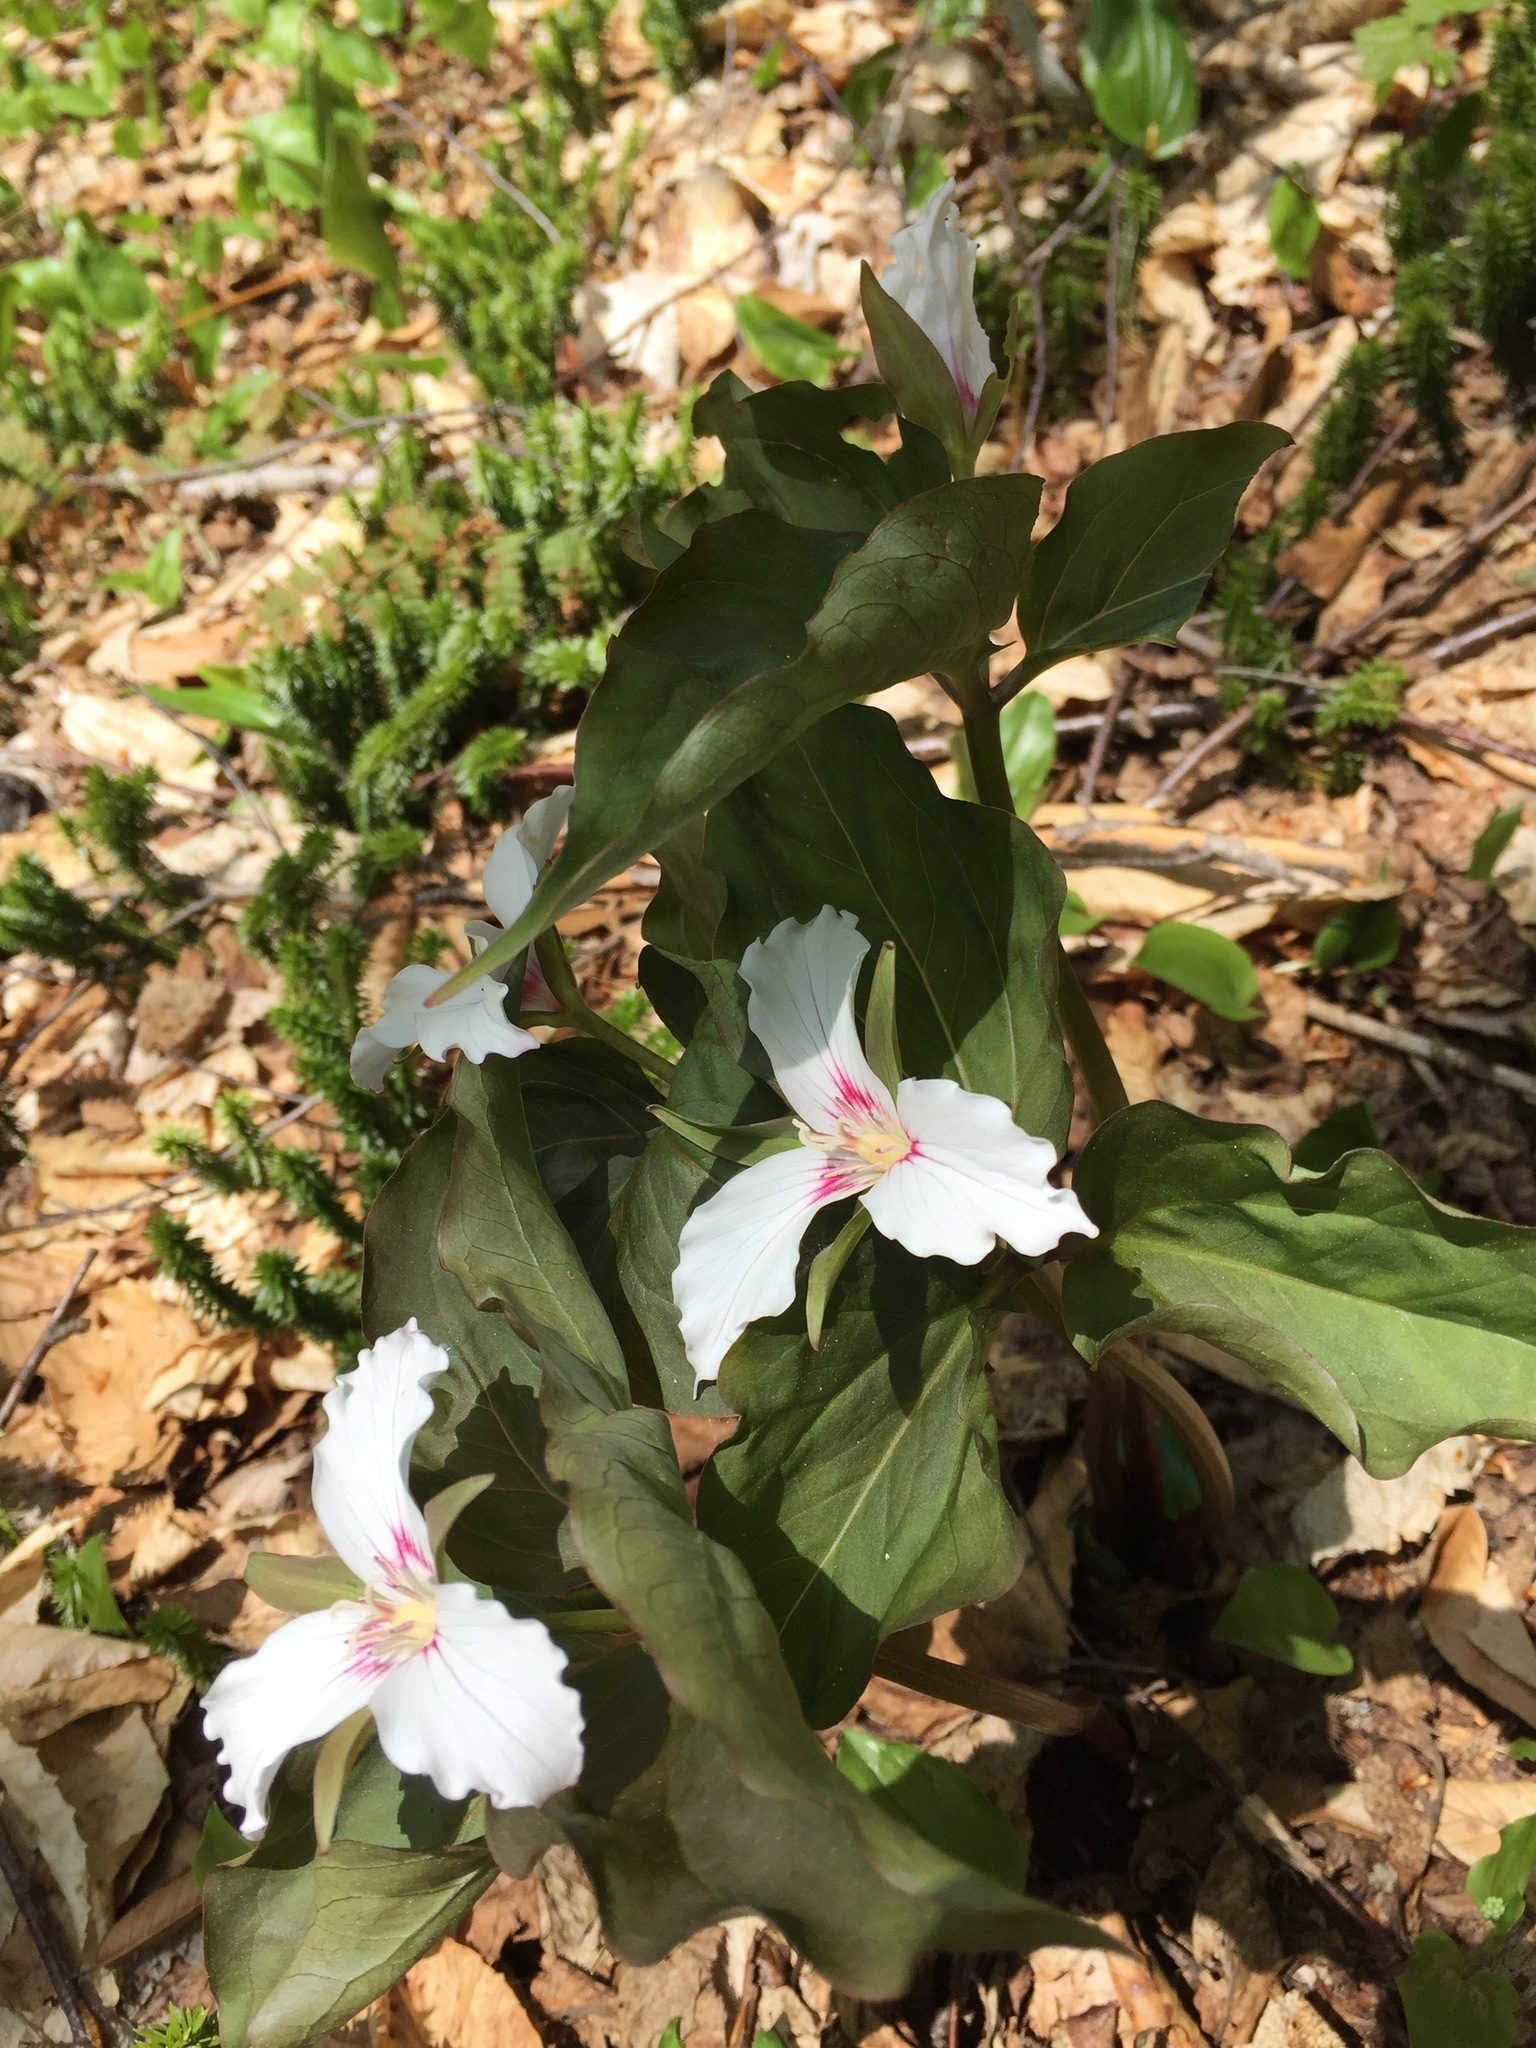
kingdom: Plantae
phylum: Tracheophyta
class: Liliopsida
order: Liliales
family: Melanthiaceae
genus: Trillium
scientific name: Trillium undulatum
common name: Paint trillium
